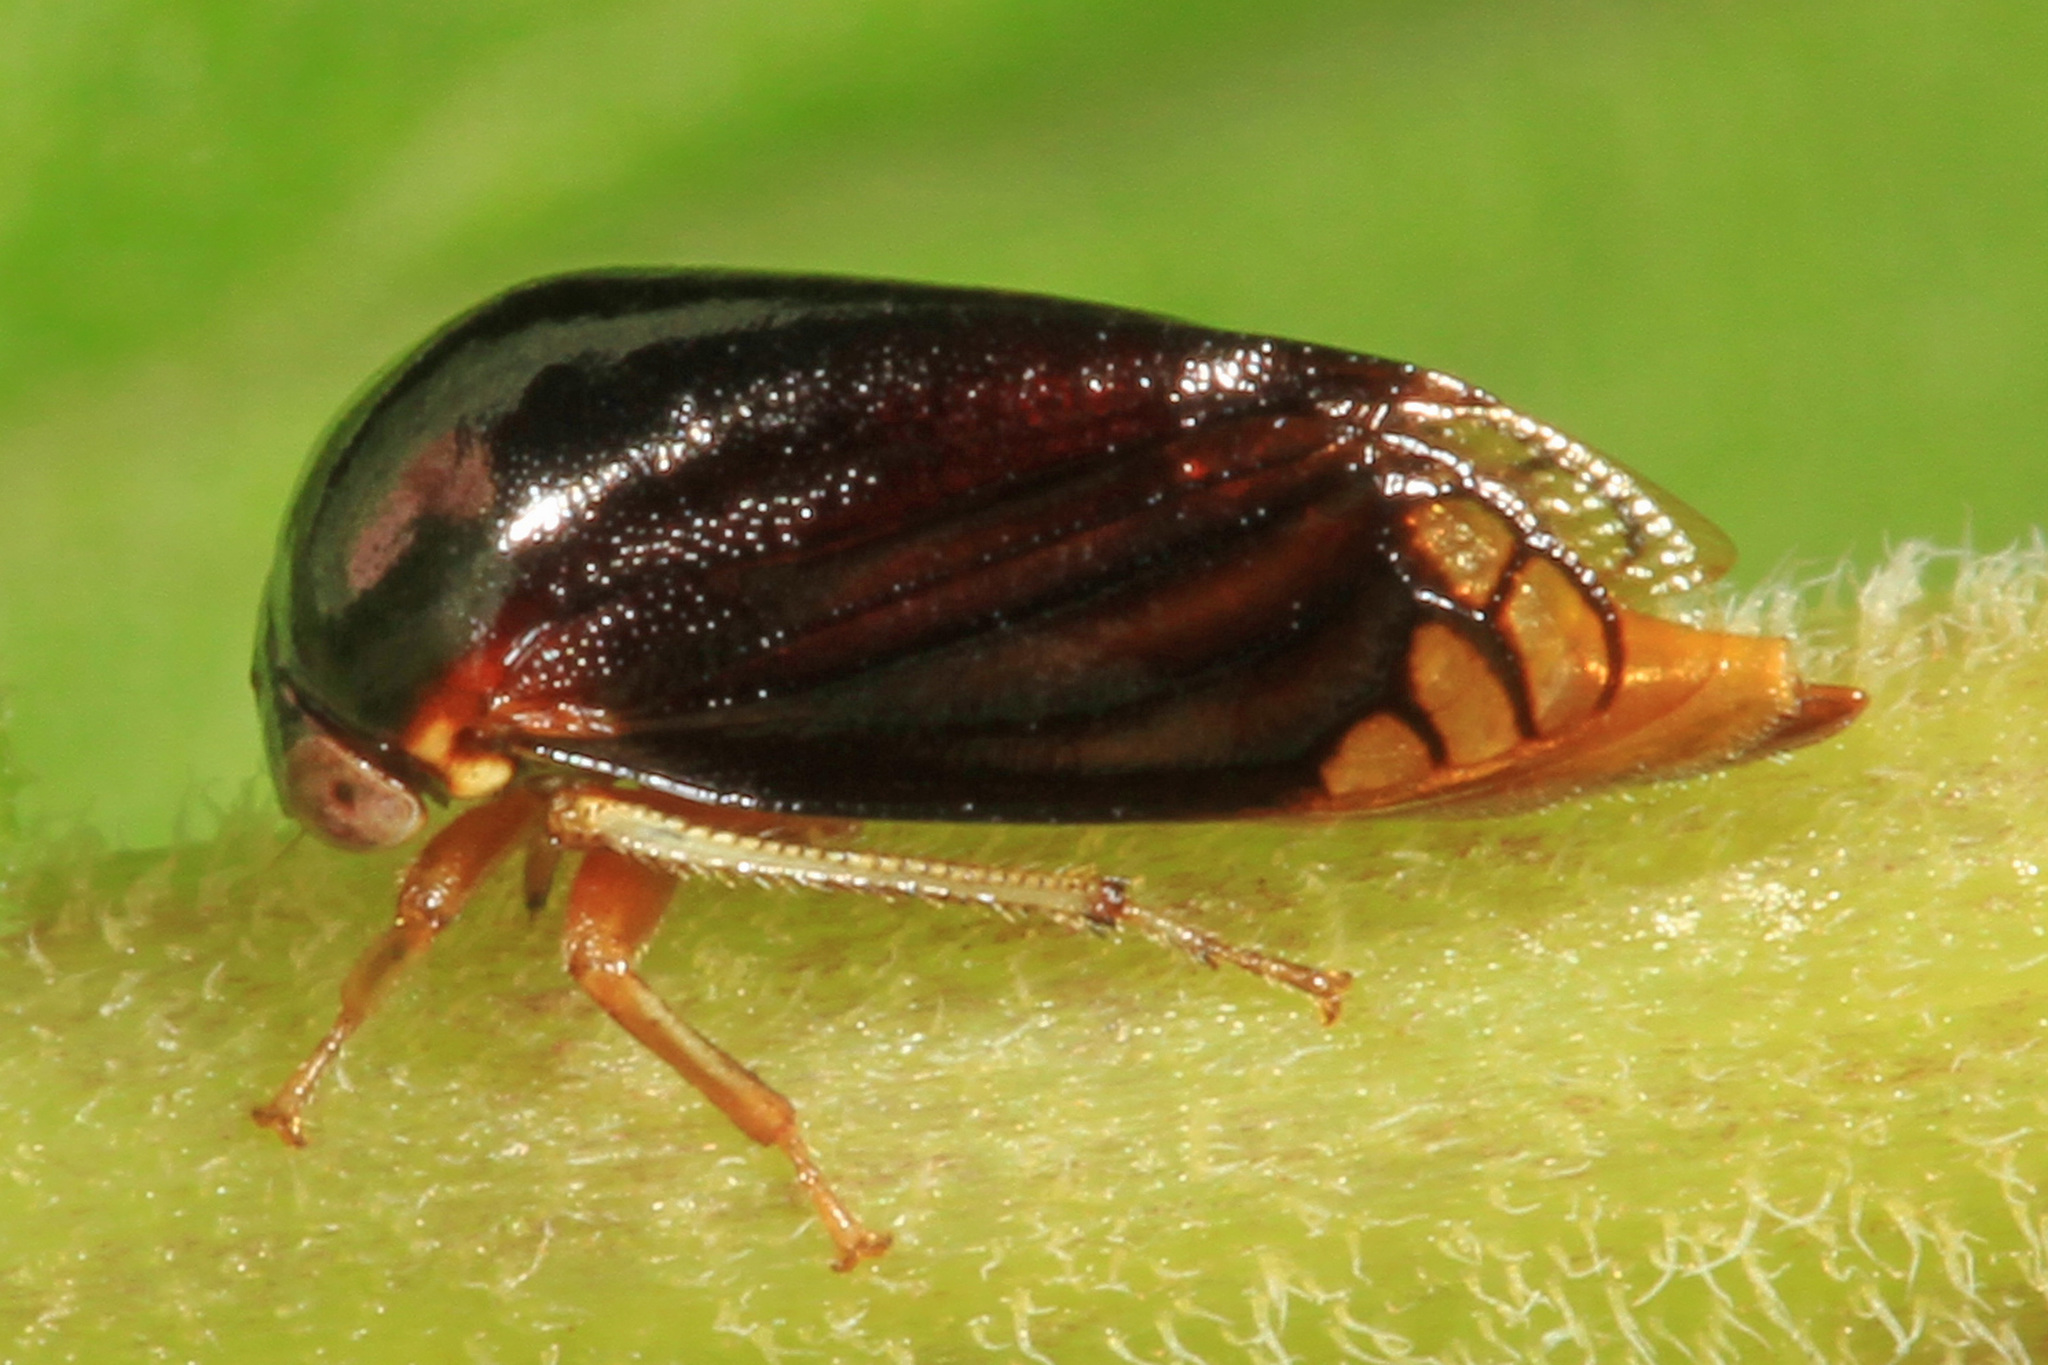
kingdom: Animalia
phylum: Arthropoda
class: Insecta
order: Hemiptera
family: Membracidae
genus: Acutalis
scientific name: Acutalis tartarea
